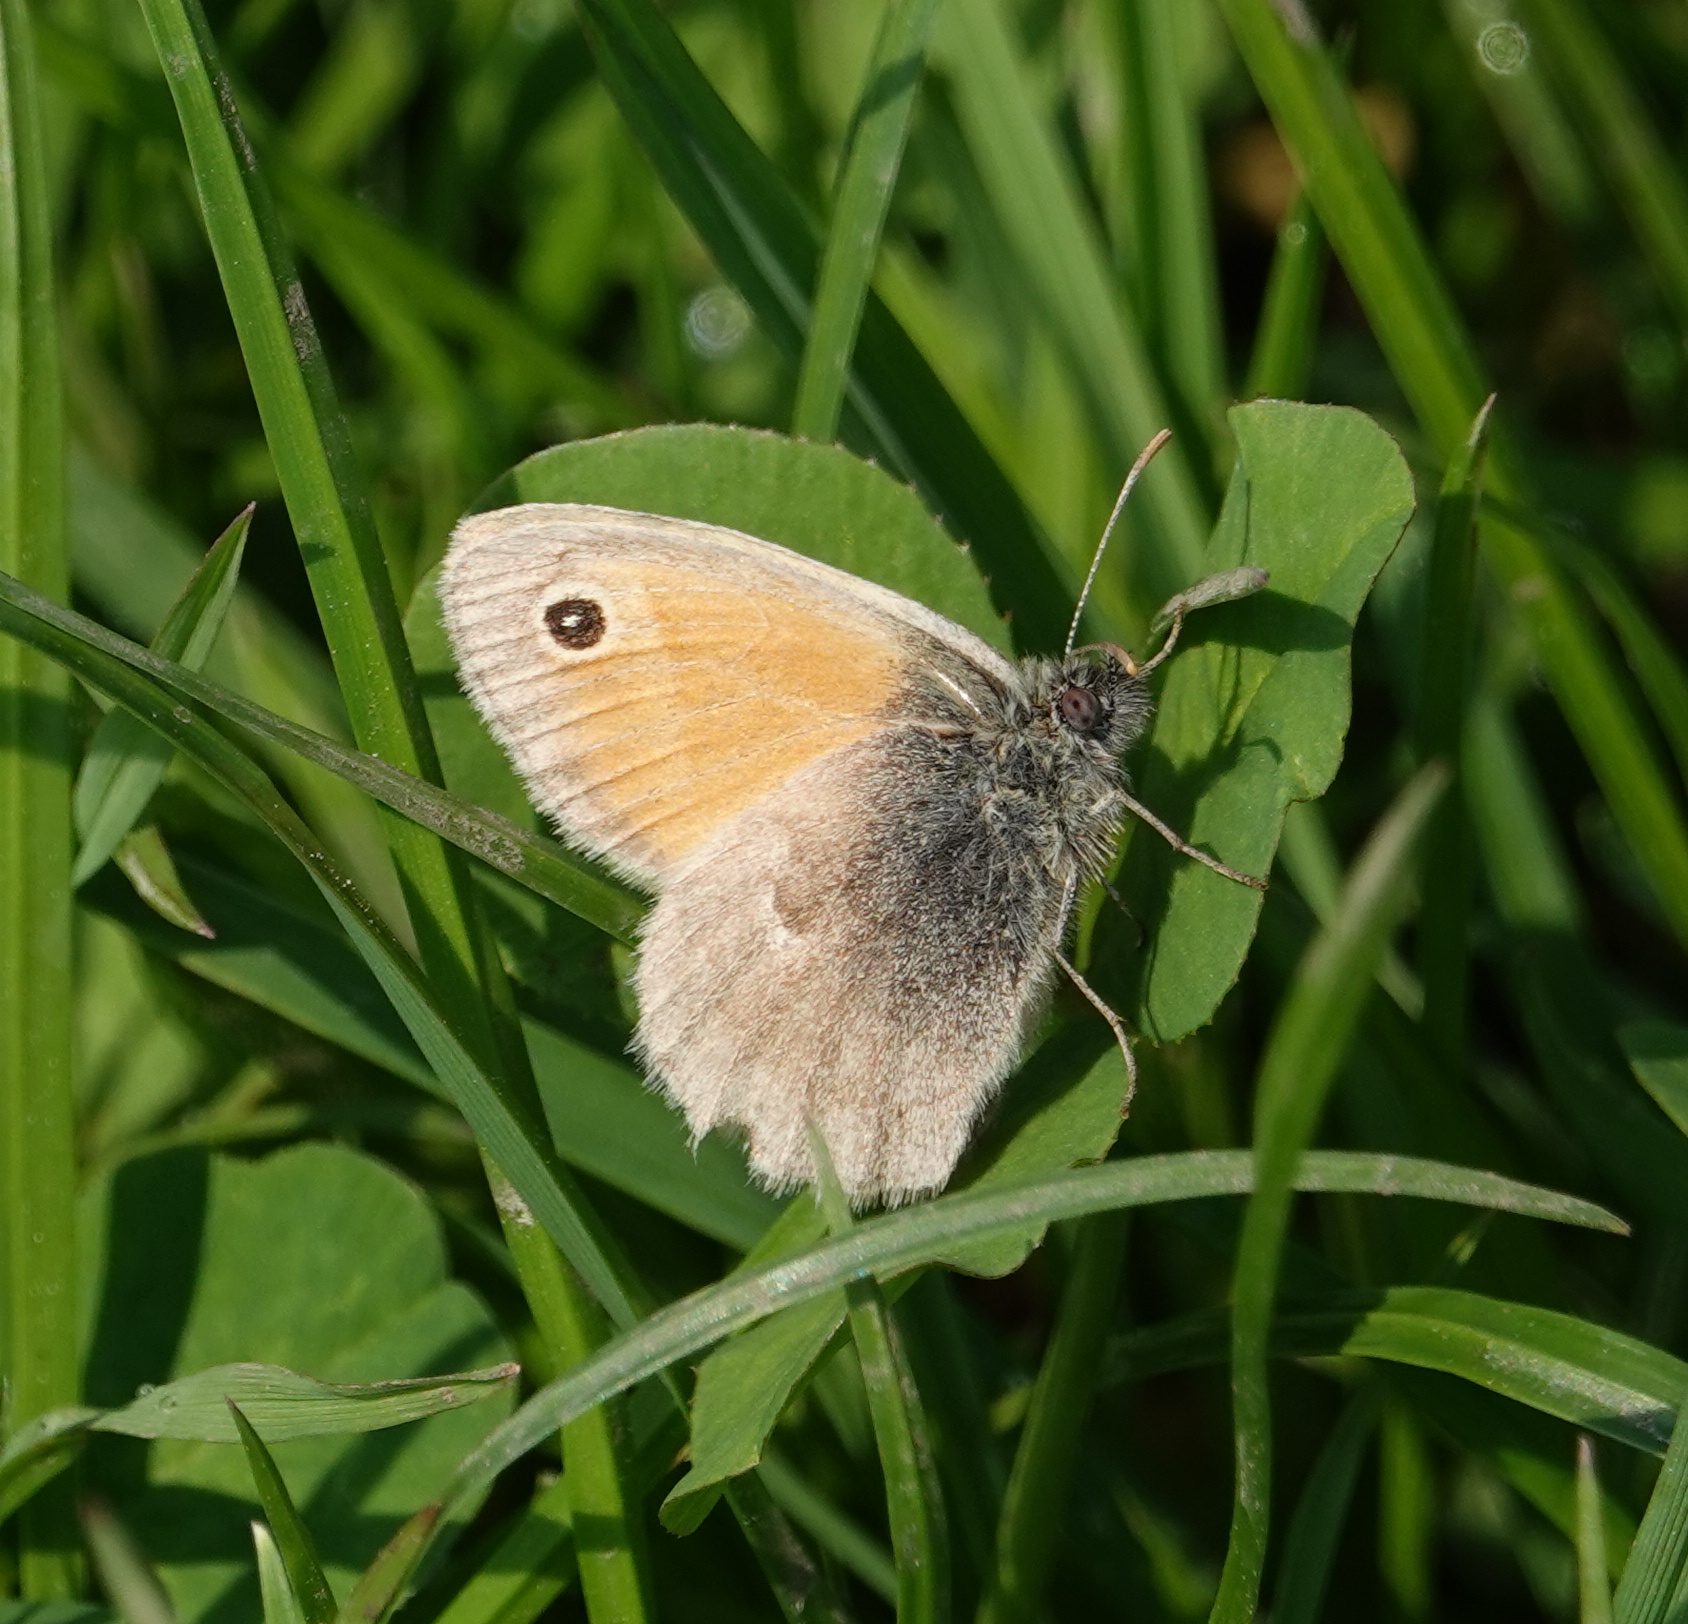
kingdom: Animalia
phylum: Arthropoda
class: Insecta
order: Lepidoptera
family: Nymphalidae
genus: Coenonympha
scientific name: Coenonympha pamphilus
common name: Small heath
